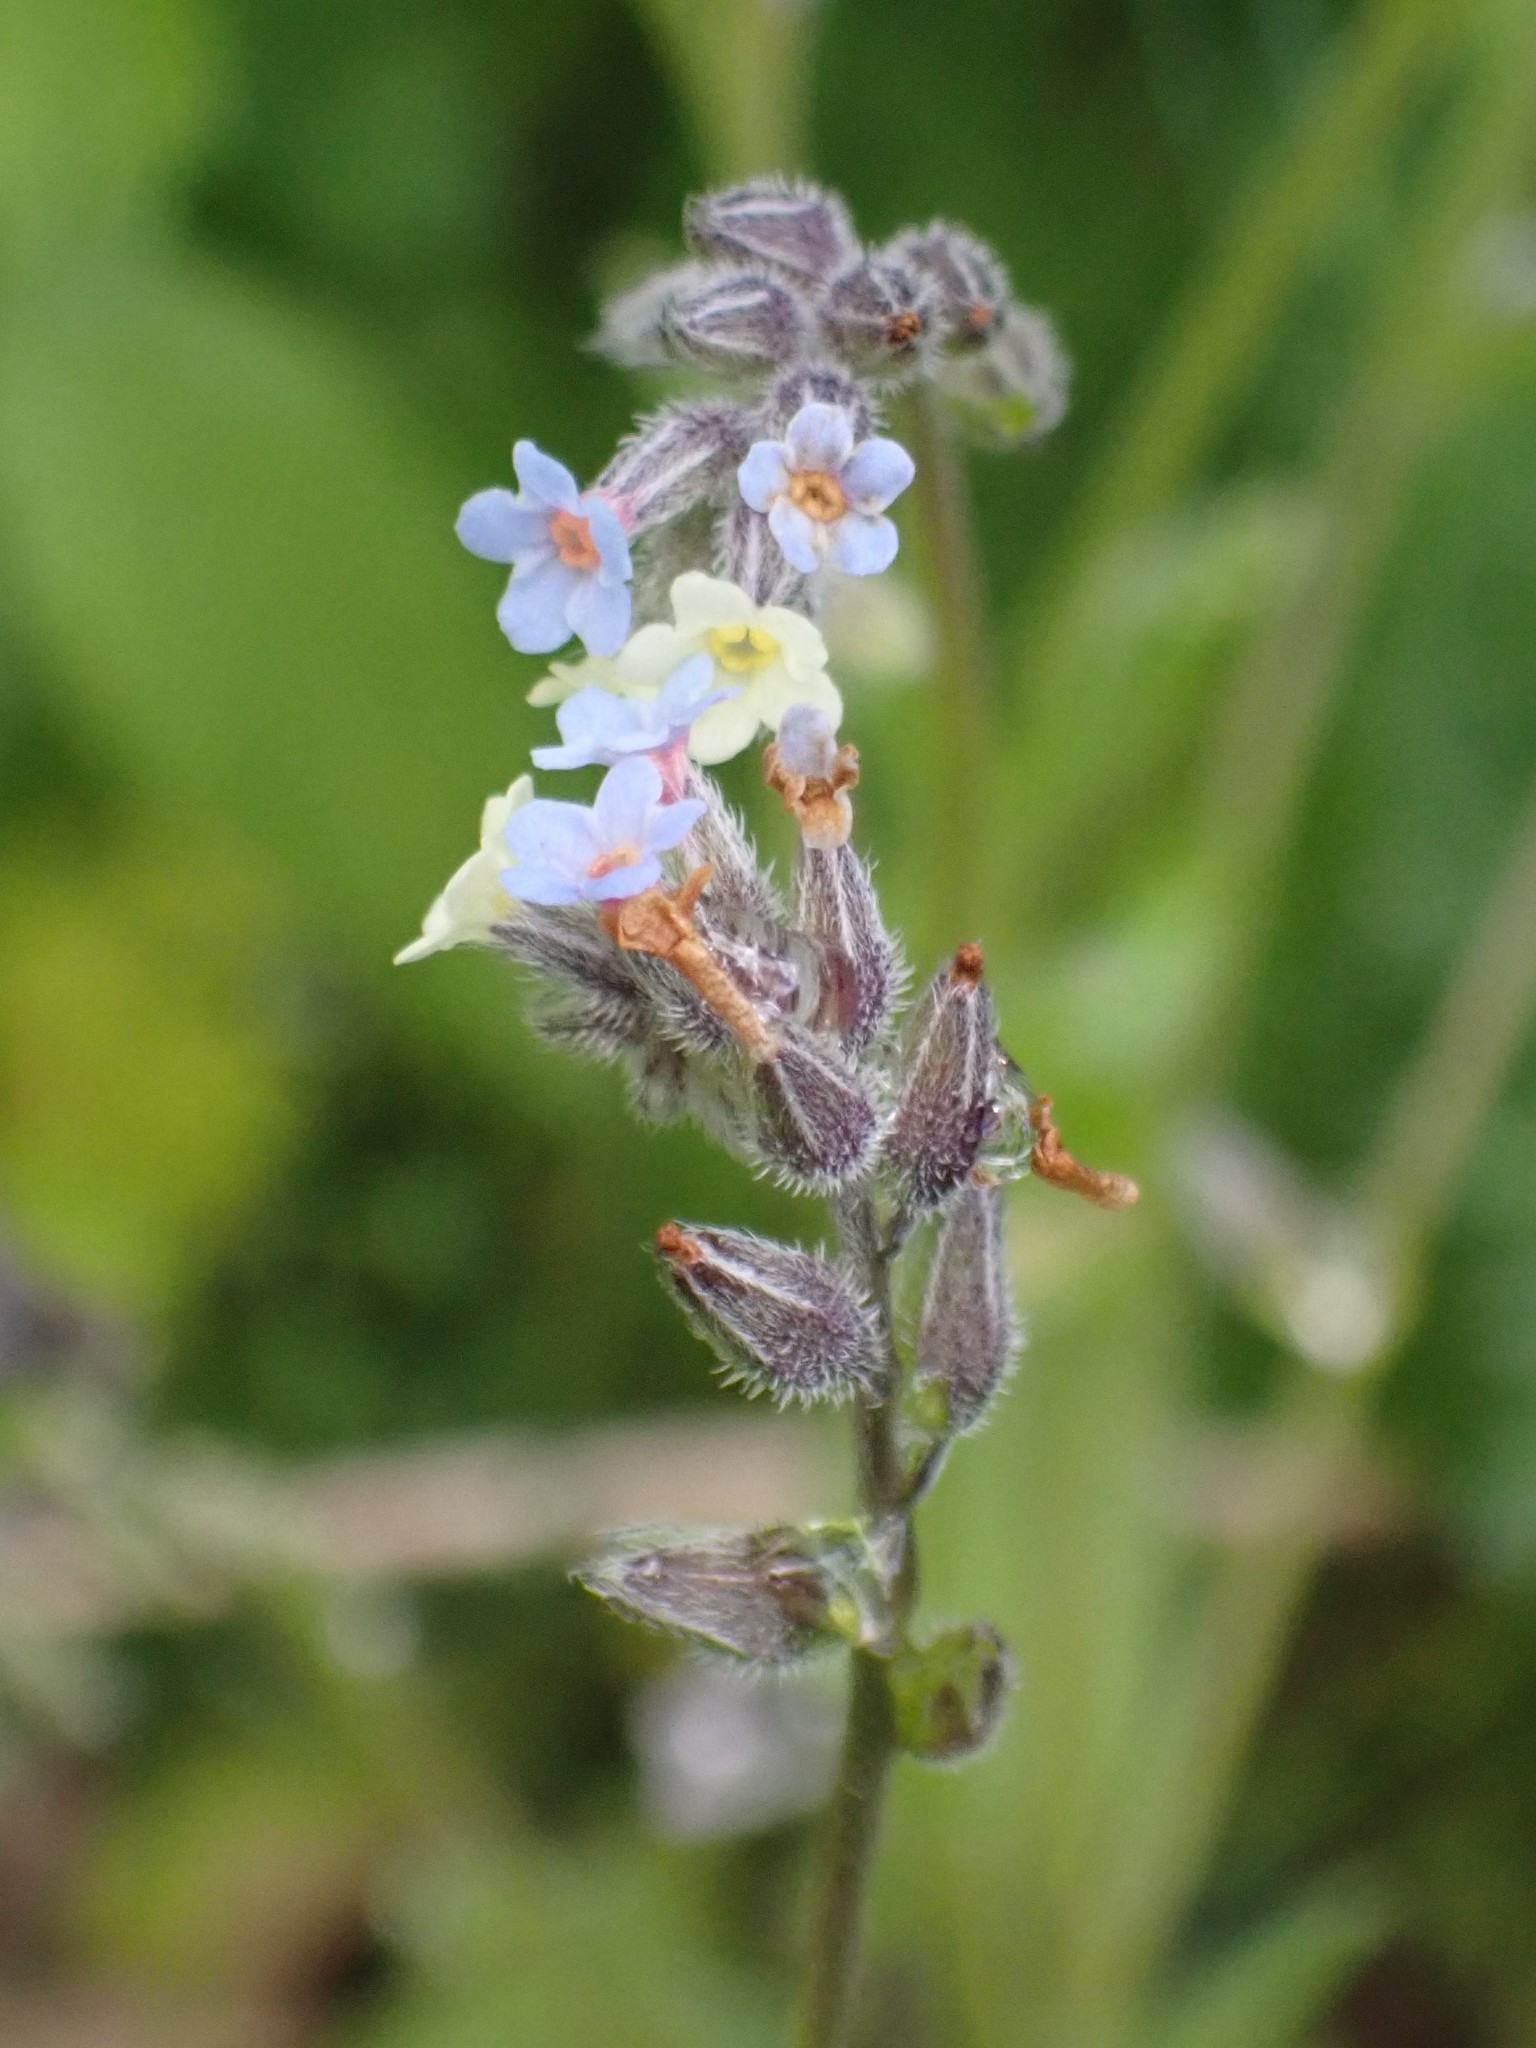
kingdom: Plantae
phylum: Tracheophyta
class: Magnoliopsida
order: Boraginales
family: Boraginaceae
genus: Myosotis
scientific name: Myosotis discolor
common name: Changing forget-me-not
